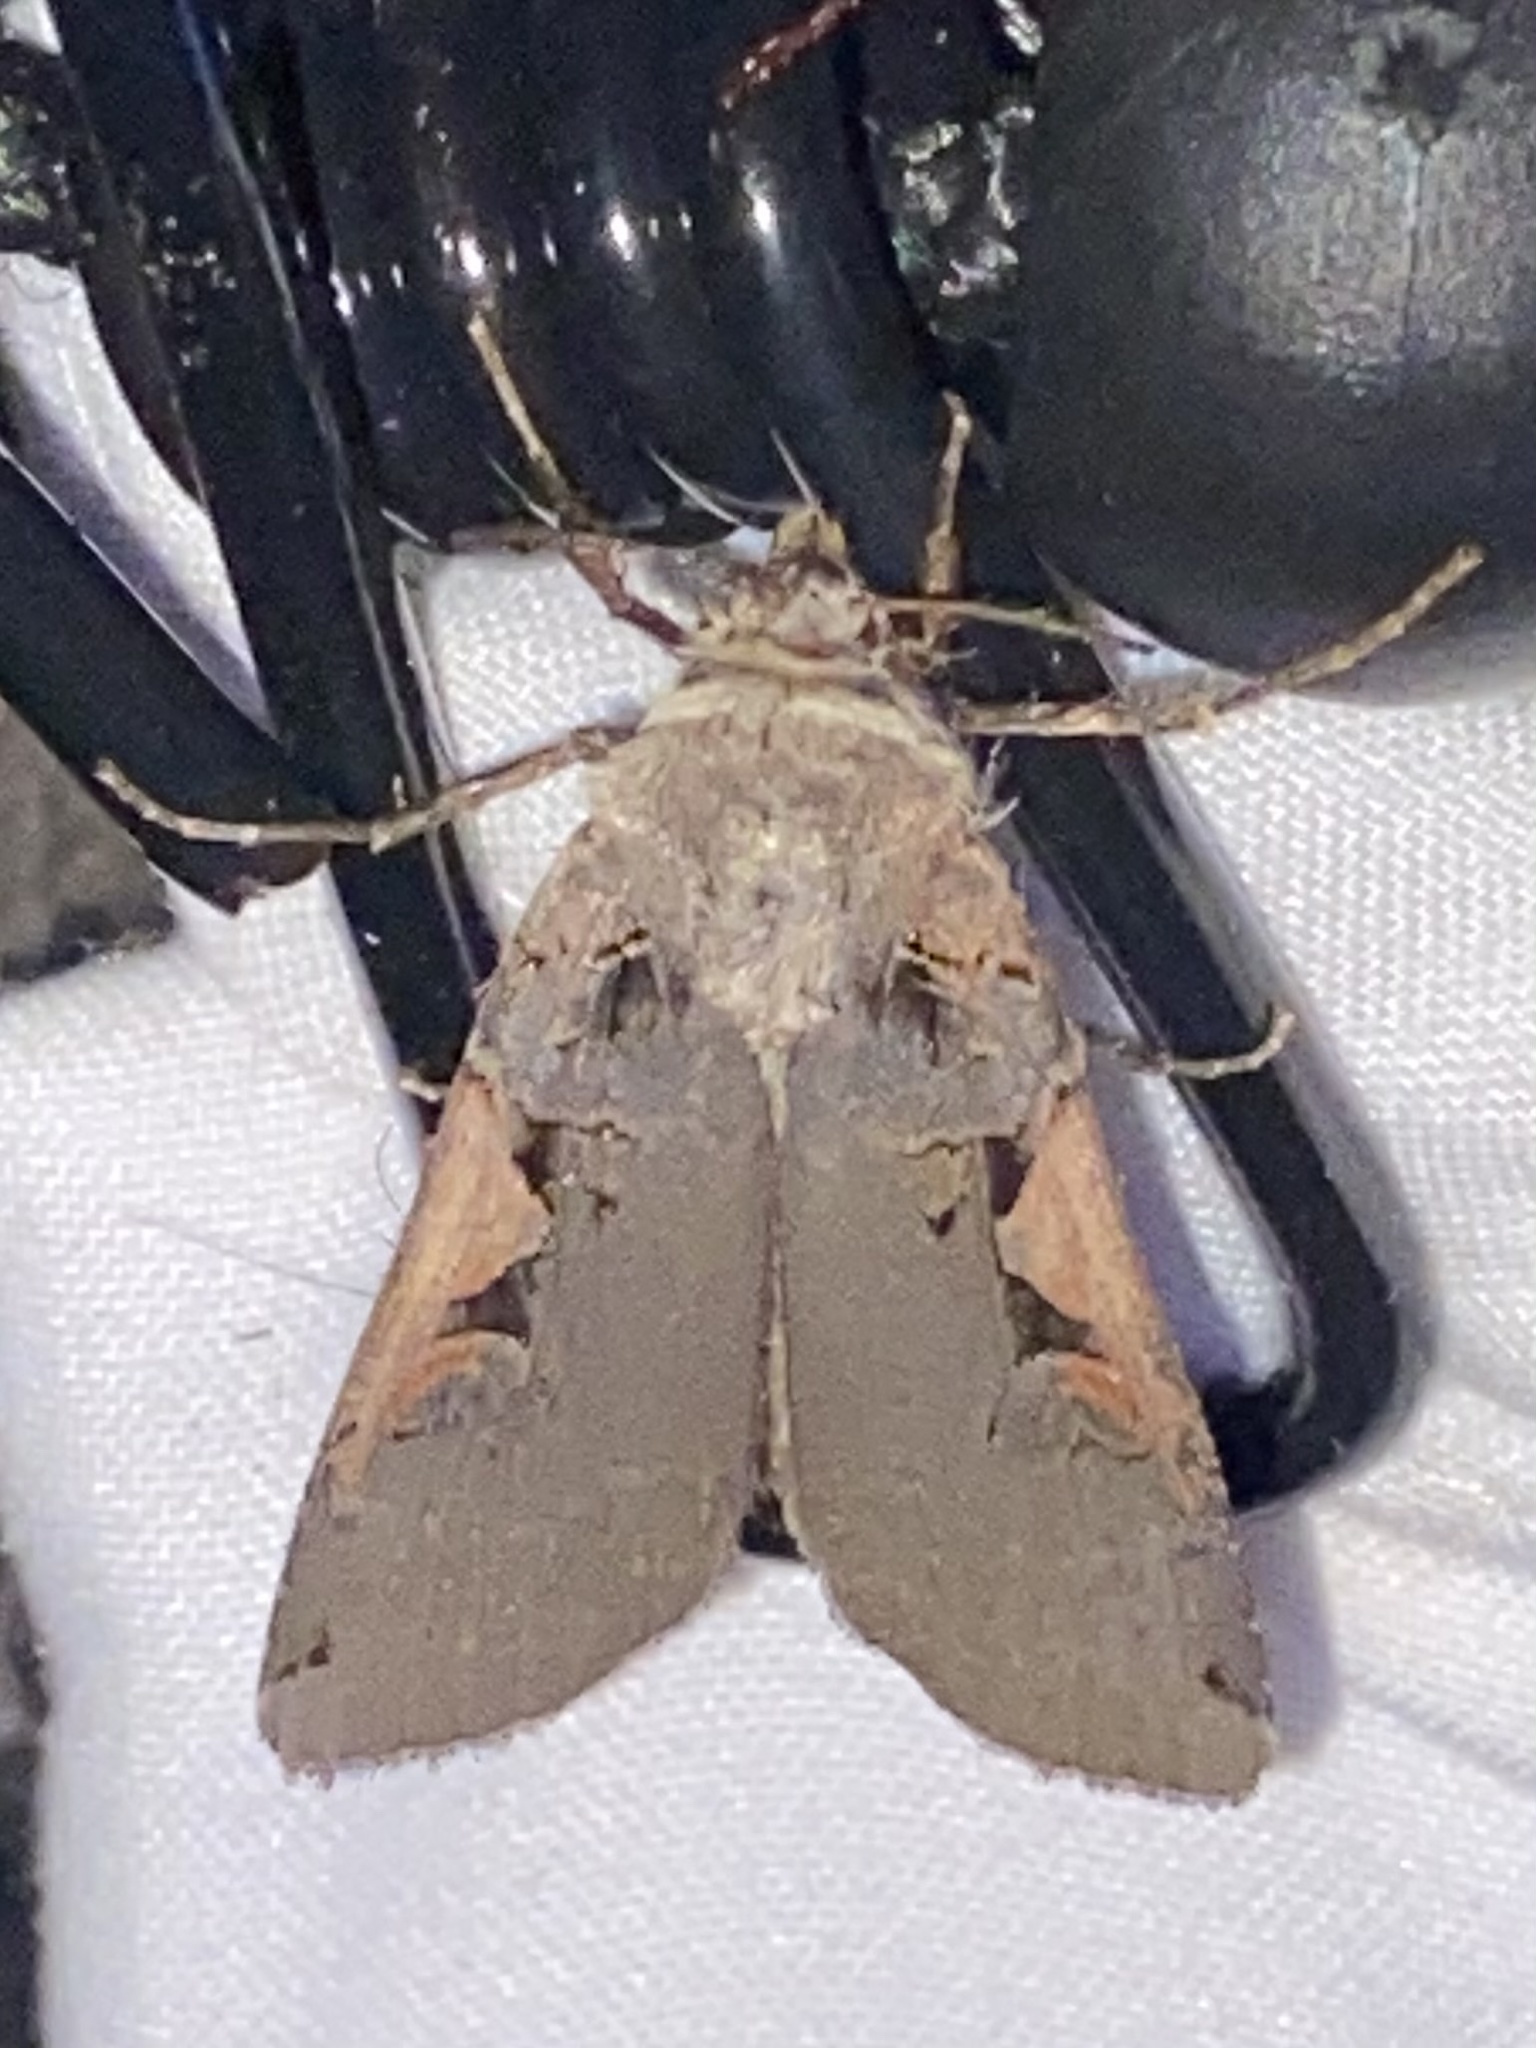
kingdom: Animalia
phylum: Arthropoda
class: Insecta
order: Lepidoptera
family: Noctuidae
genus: Xestia
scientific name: Xestia dolosa
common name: Cutworm moth
